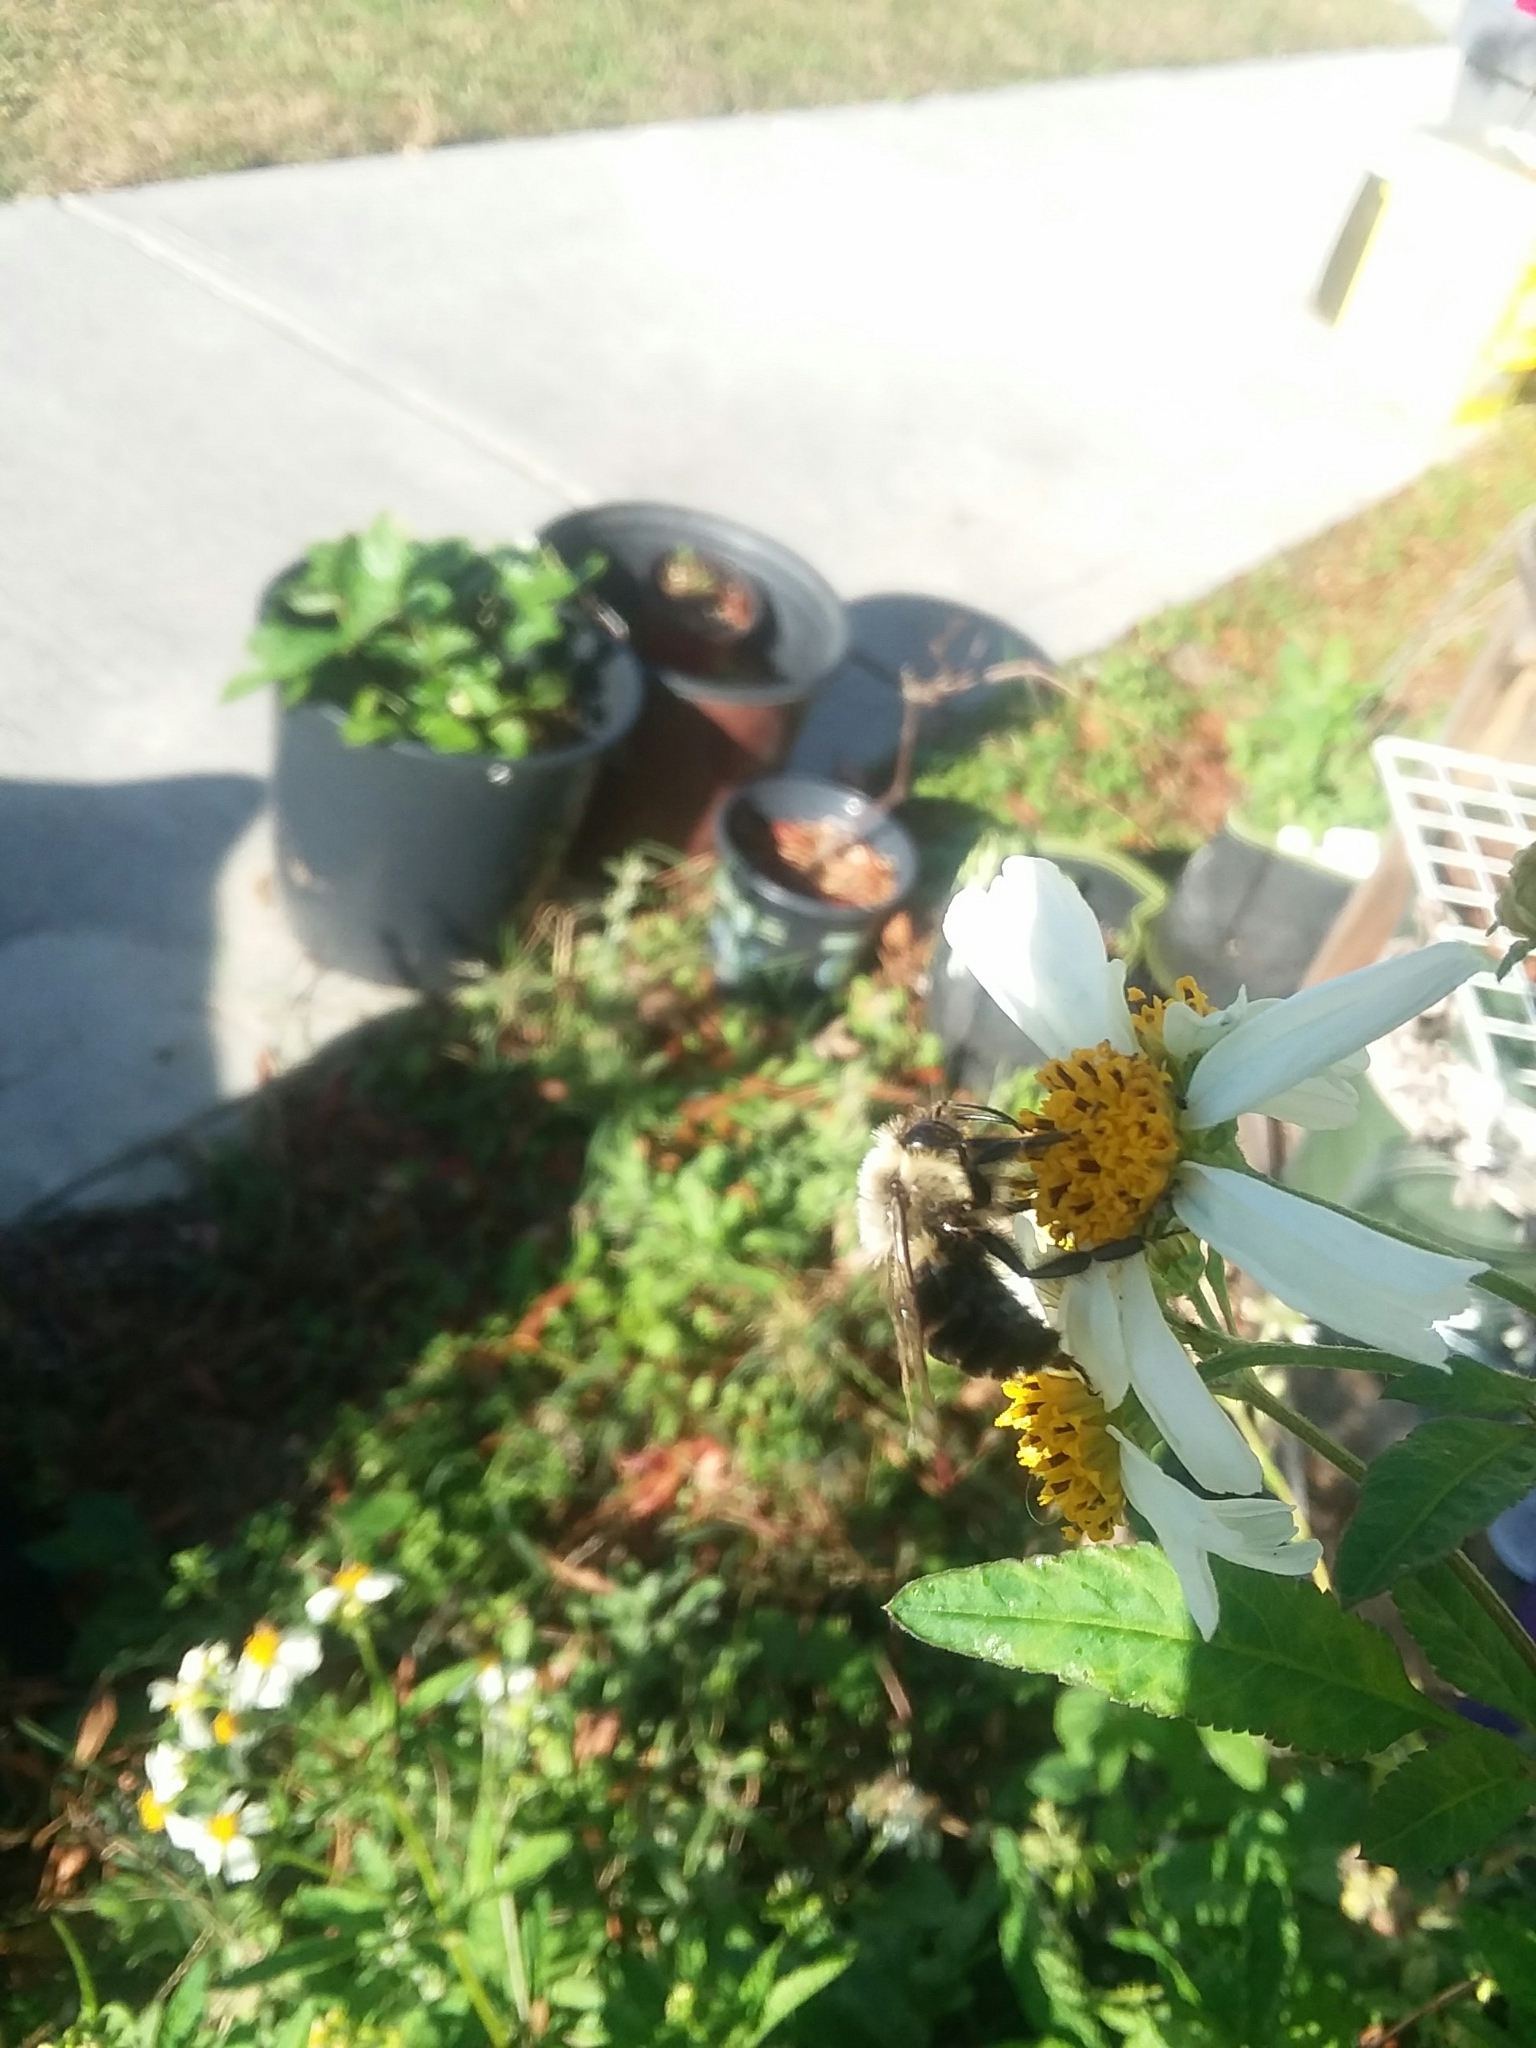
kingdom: Animalia
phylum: Arthropoda
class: Insecta
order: Hymenoptera
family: Apidae
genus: Bombus
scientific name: Bombus impatiens
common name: Common eastern bumble bee
